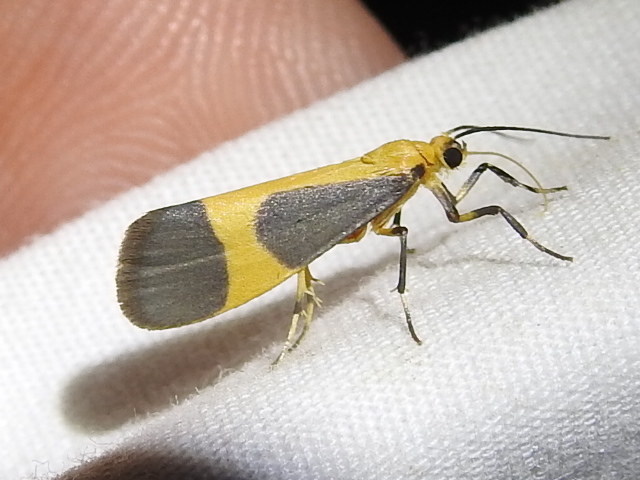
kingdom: Animalia
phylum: Arthropoda
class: Insecta
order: Lepidoptera
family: Erebidae
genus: Cisthene
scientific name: Cisthene picta
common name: Pictured lichen moth
